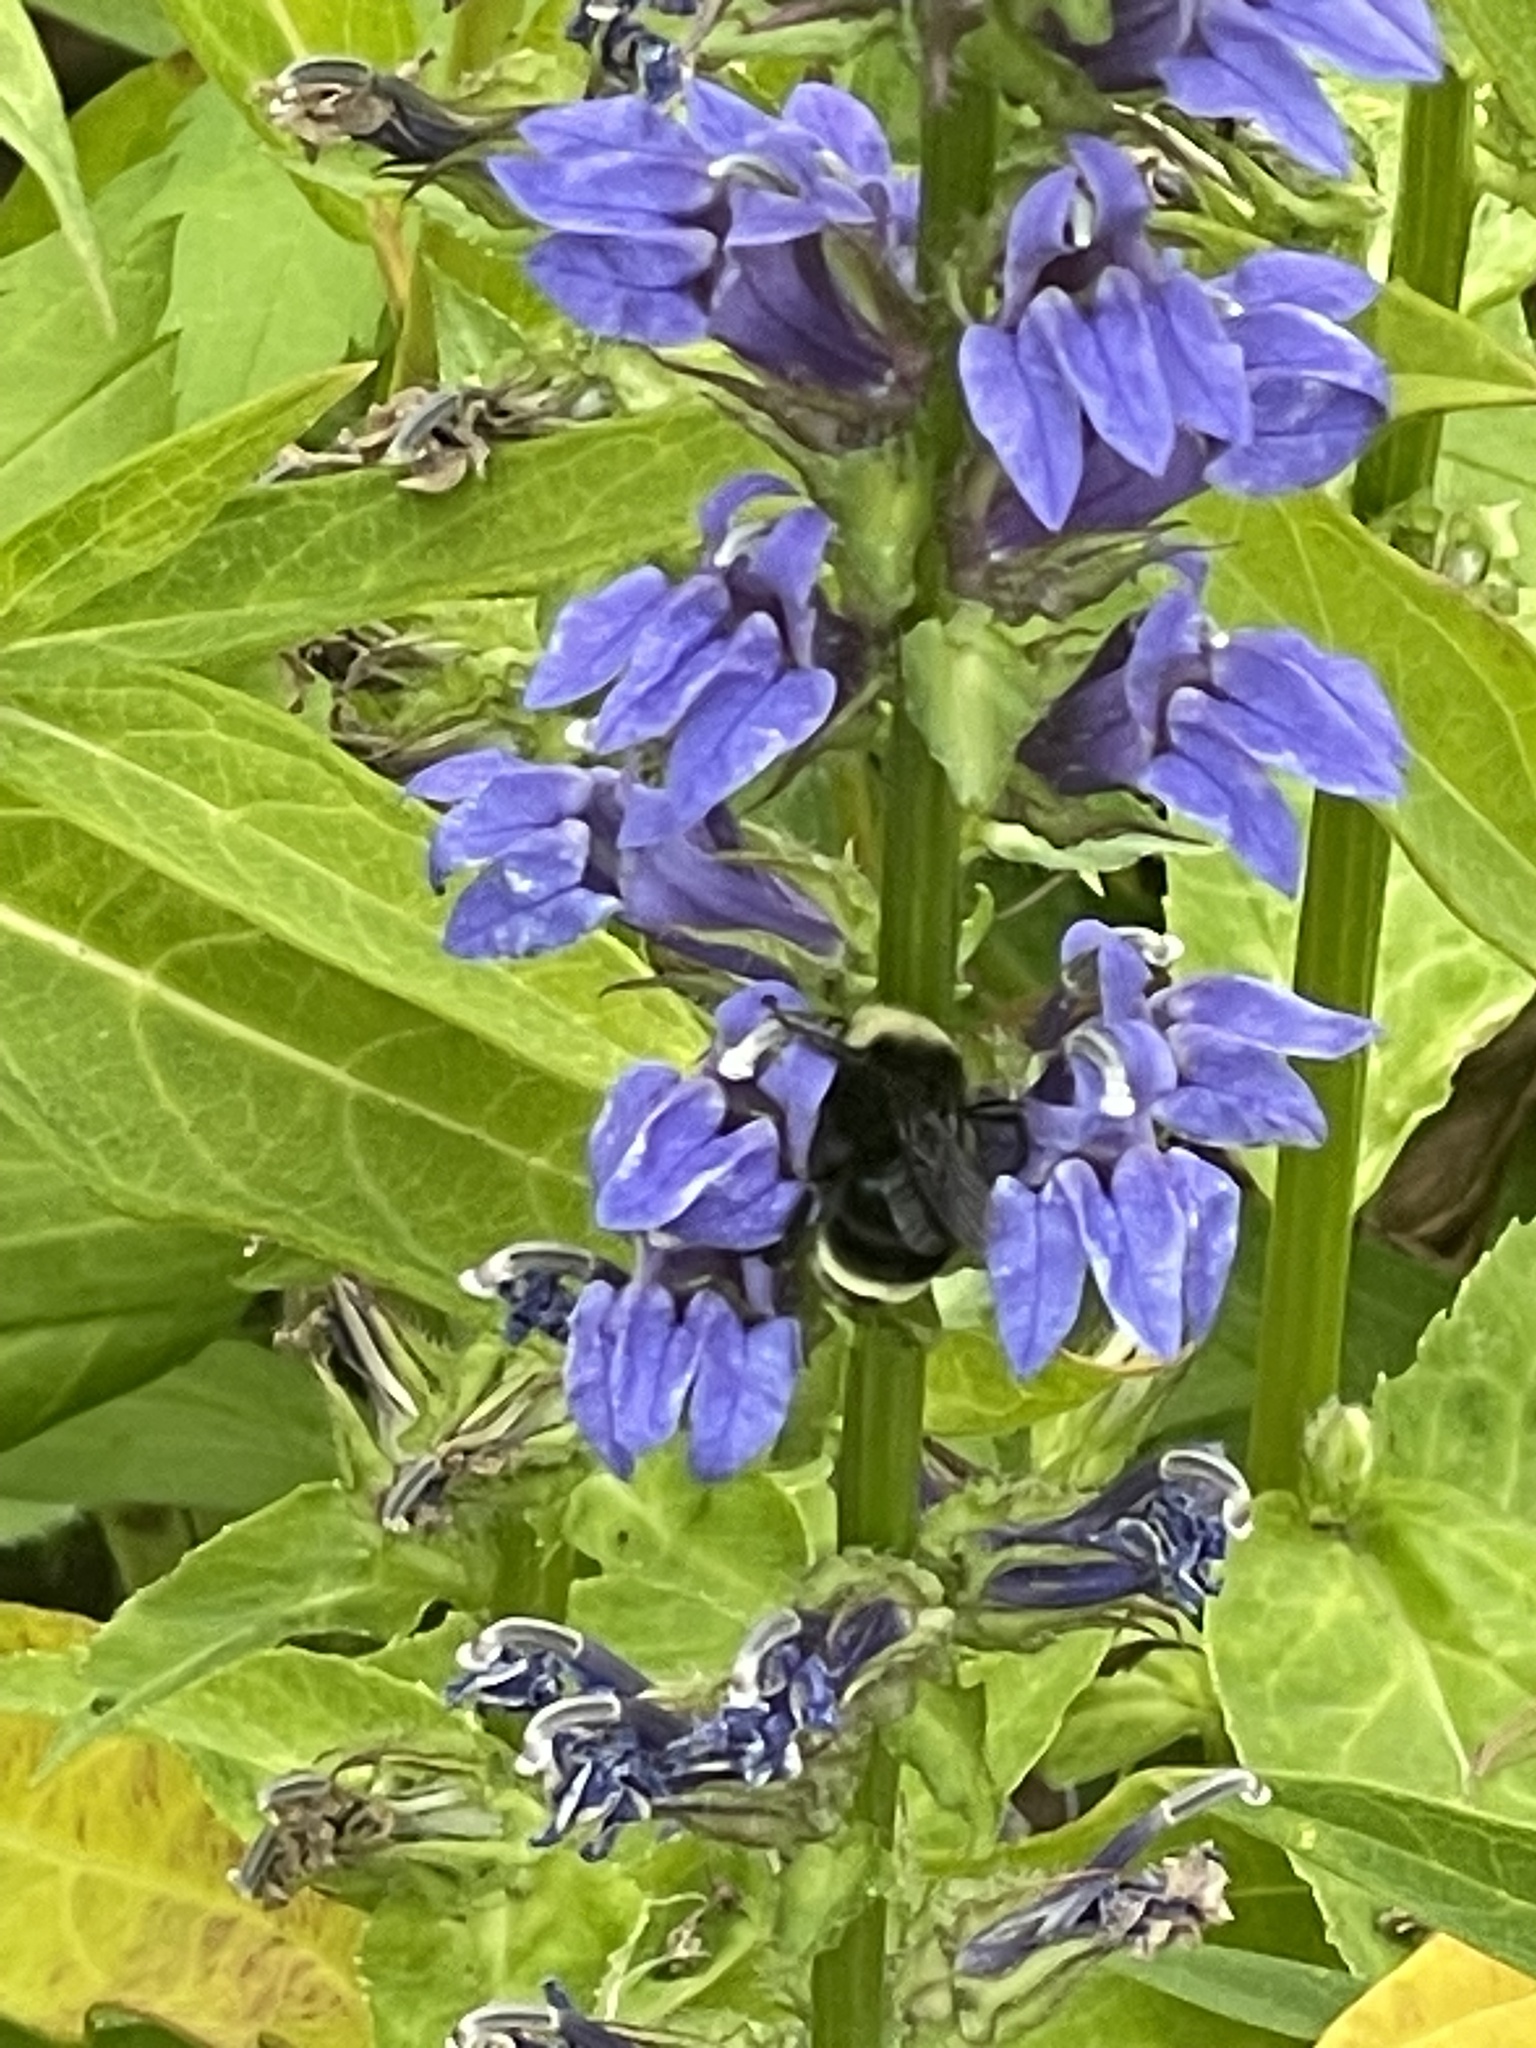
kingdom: Animalia
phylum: Arthropoda
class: Insecta
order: Hymenoptera
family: Apidae
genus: Bombus
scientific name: Bombus vosnesenskii
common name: Vosnesensky bumble bee
